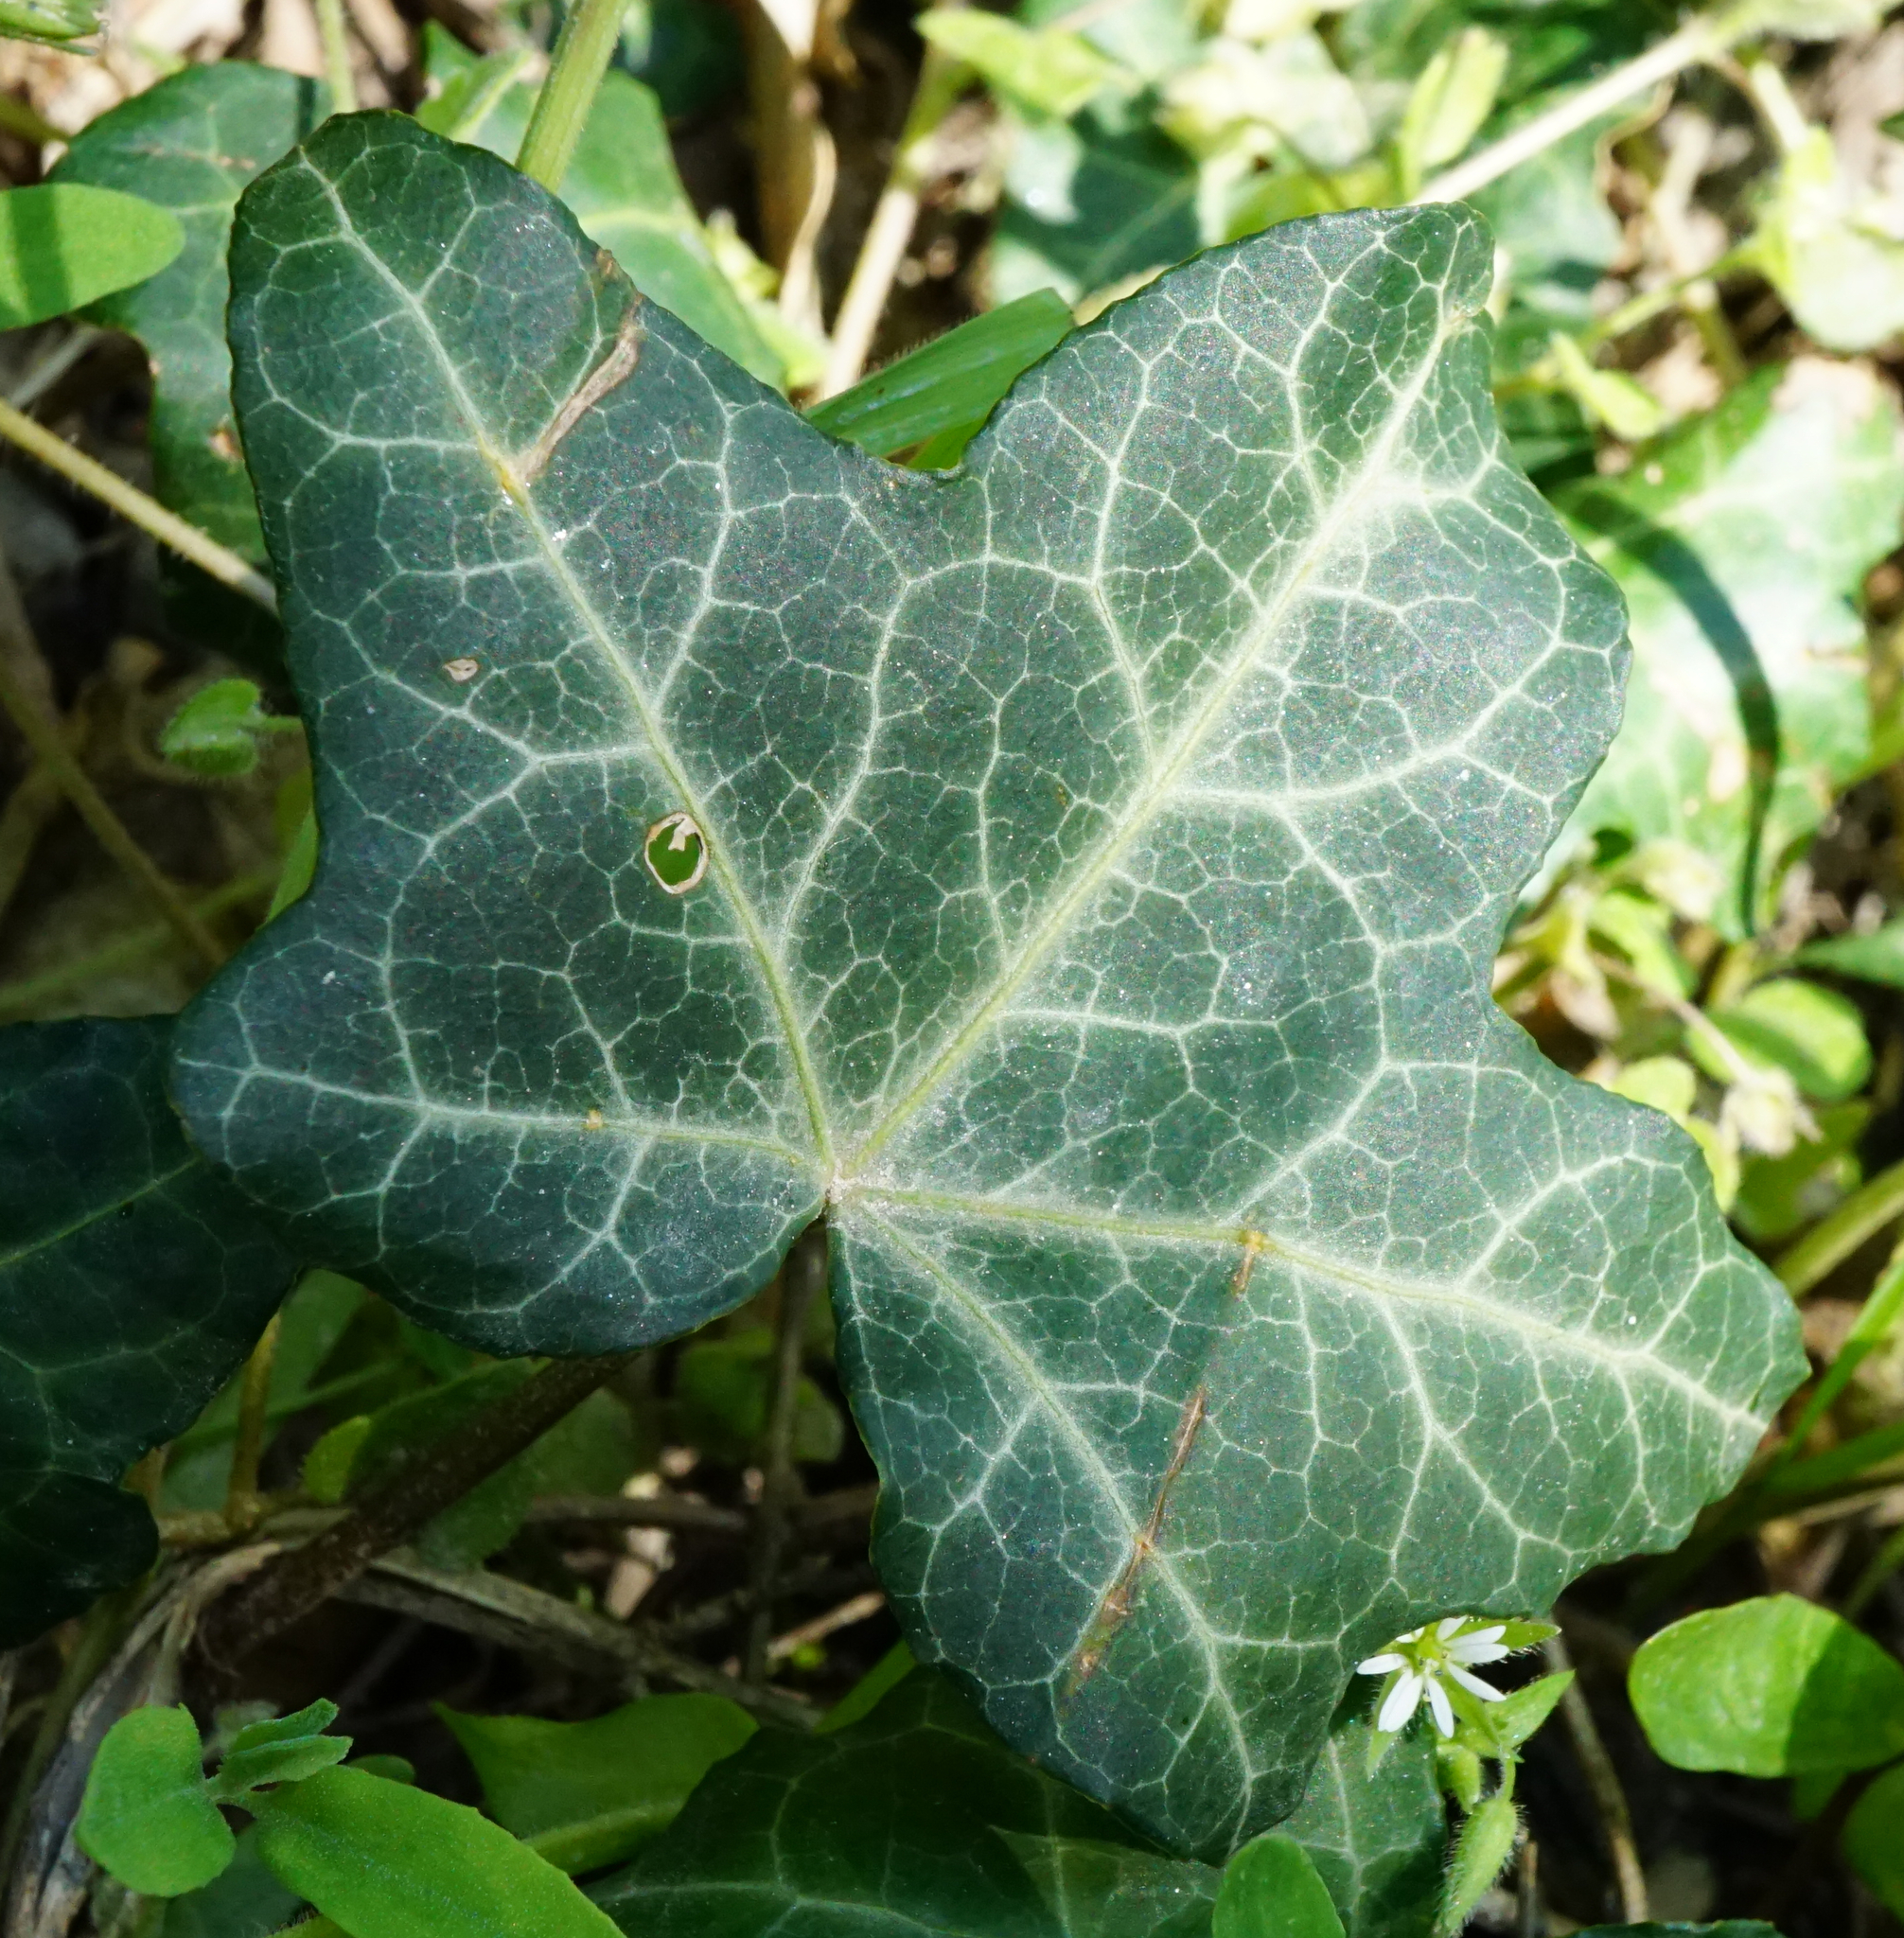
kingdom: Plantae
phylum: Tracheophyta
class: Magnoliopsida
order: Apiales
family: Araliaceae
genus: Hedera
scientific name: Hedera helix
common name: Ivy
